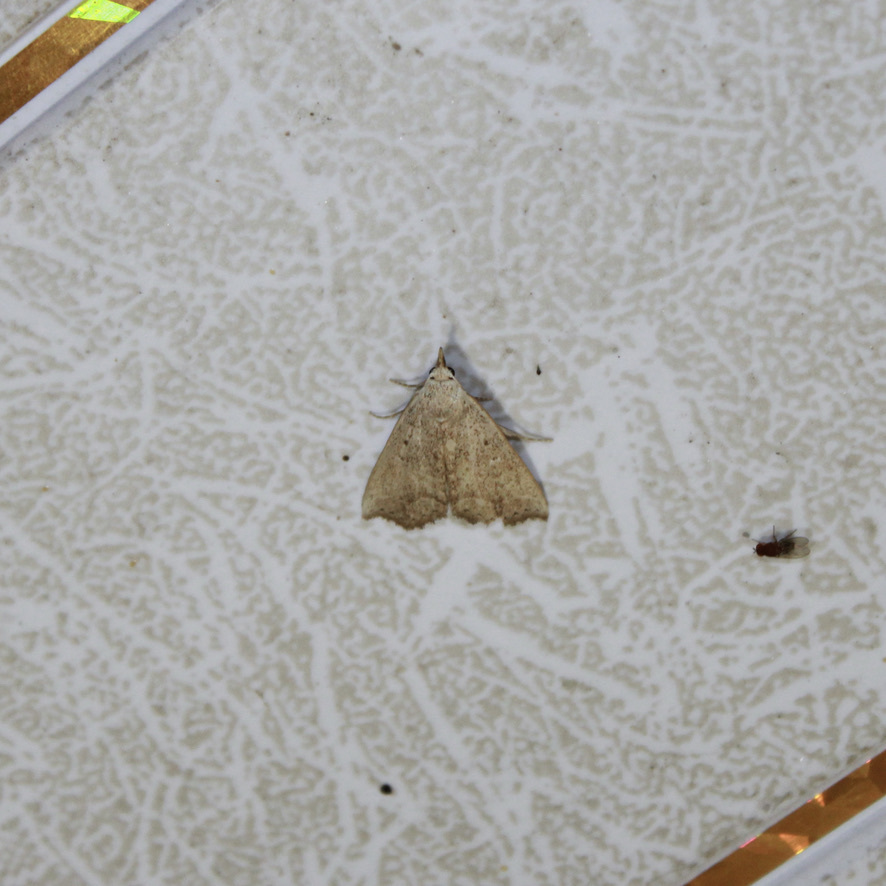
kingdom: Animalia
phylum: Arthropoda
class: Insecta
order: Lepidoptera
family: Erebidae
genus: Arugisa
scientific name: Arugisa Poena drucella
